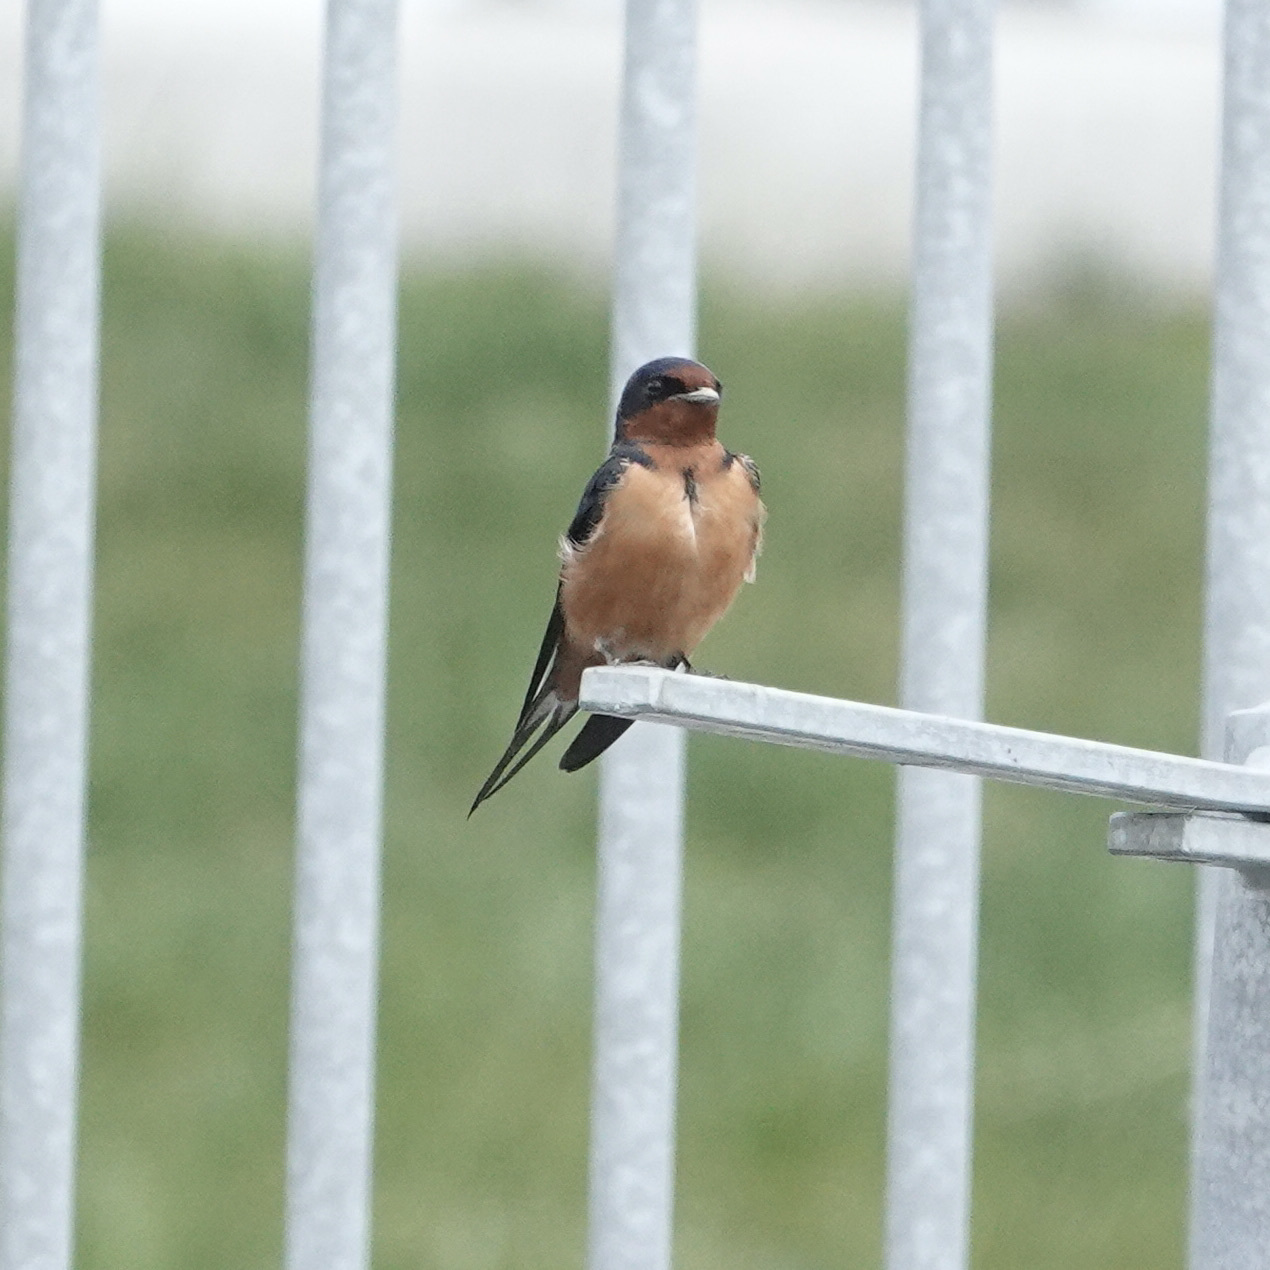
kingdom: Animalia
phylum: Chordata
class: Aves
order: Passeriformes
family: Hirundinidae
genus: Hirundo
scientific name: Hirundo rustica
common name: Barn swallow
